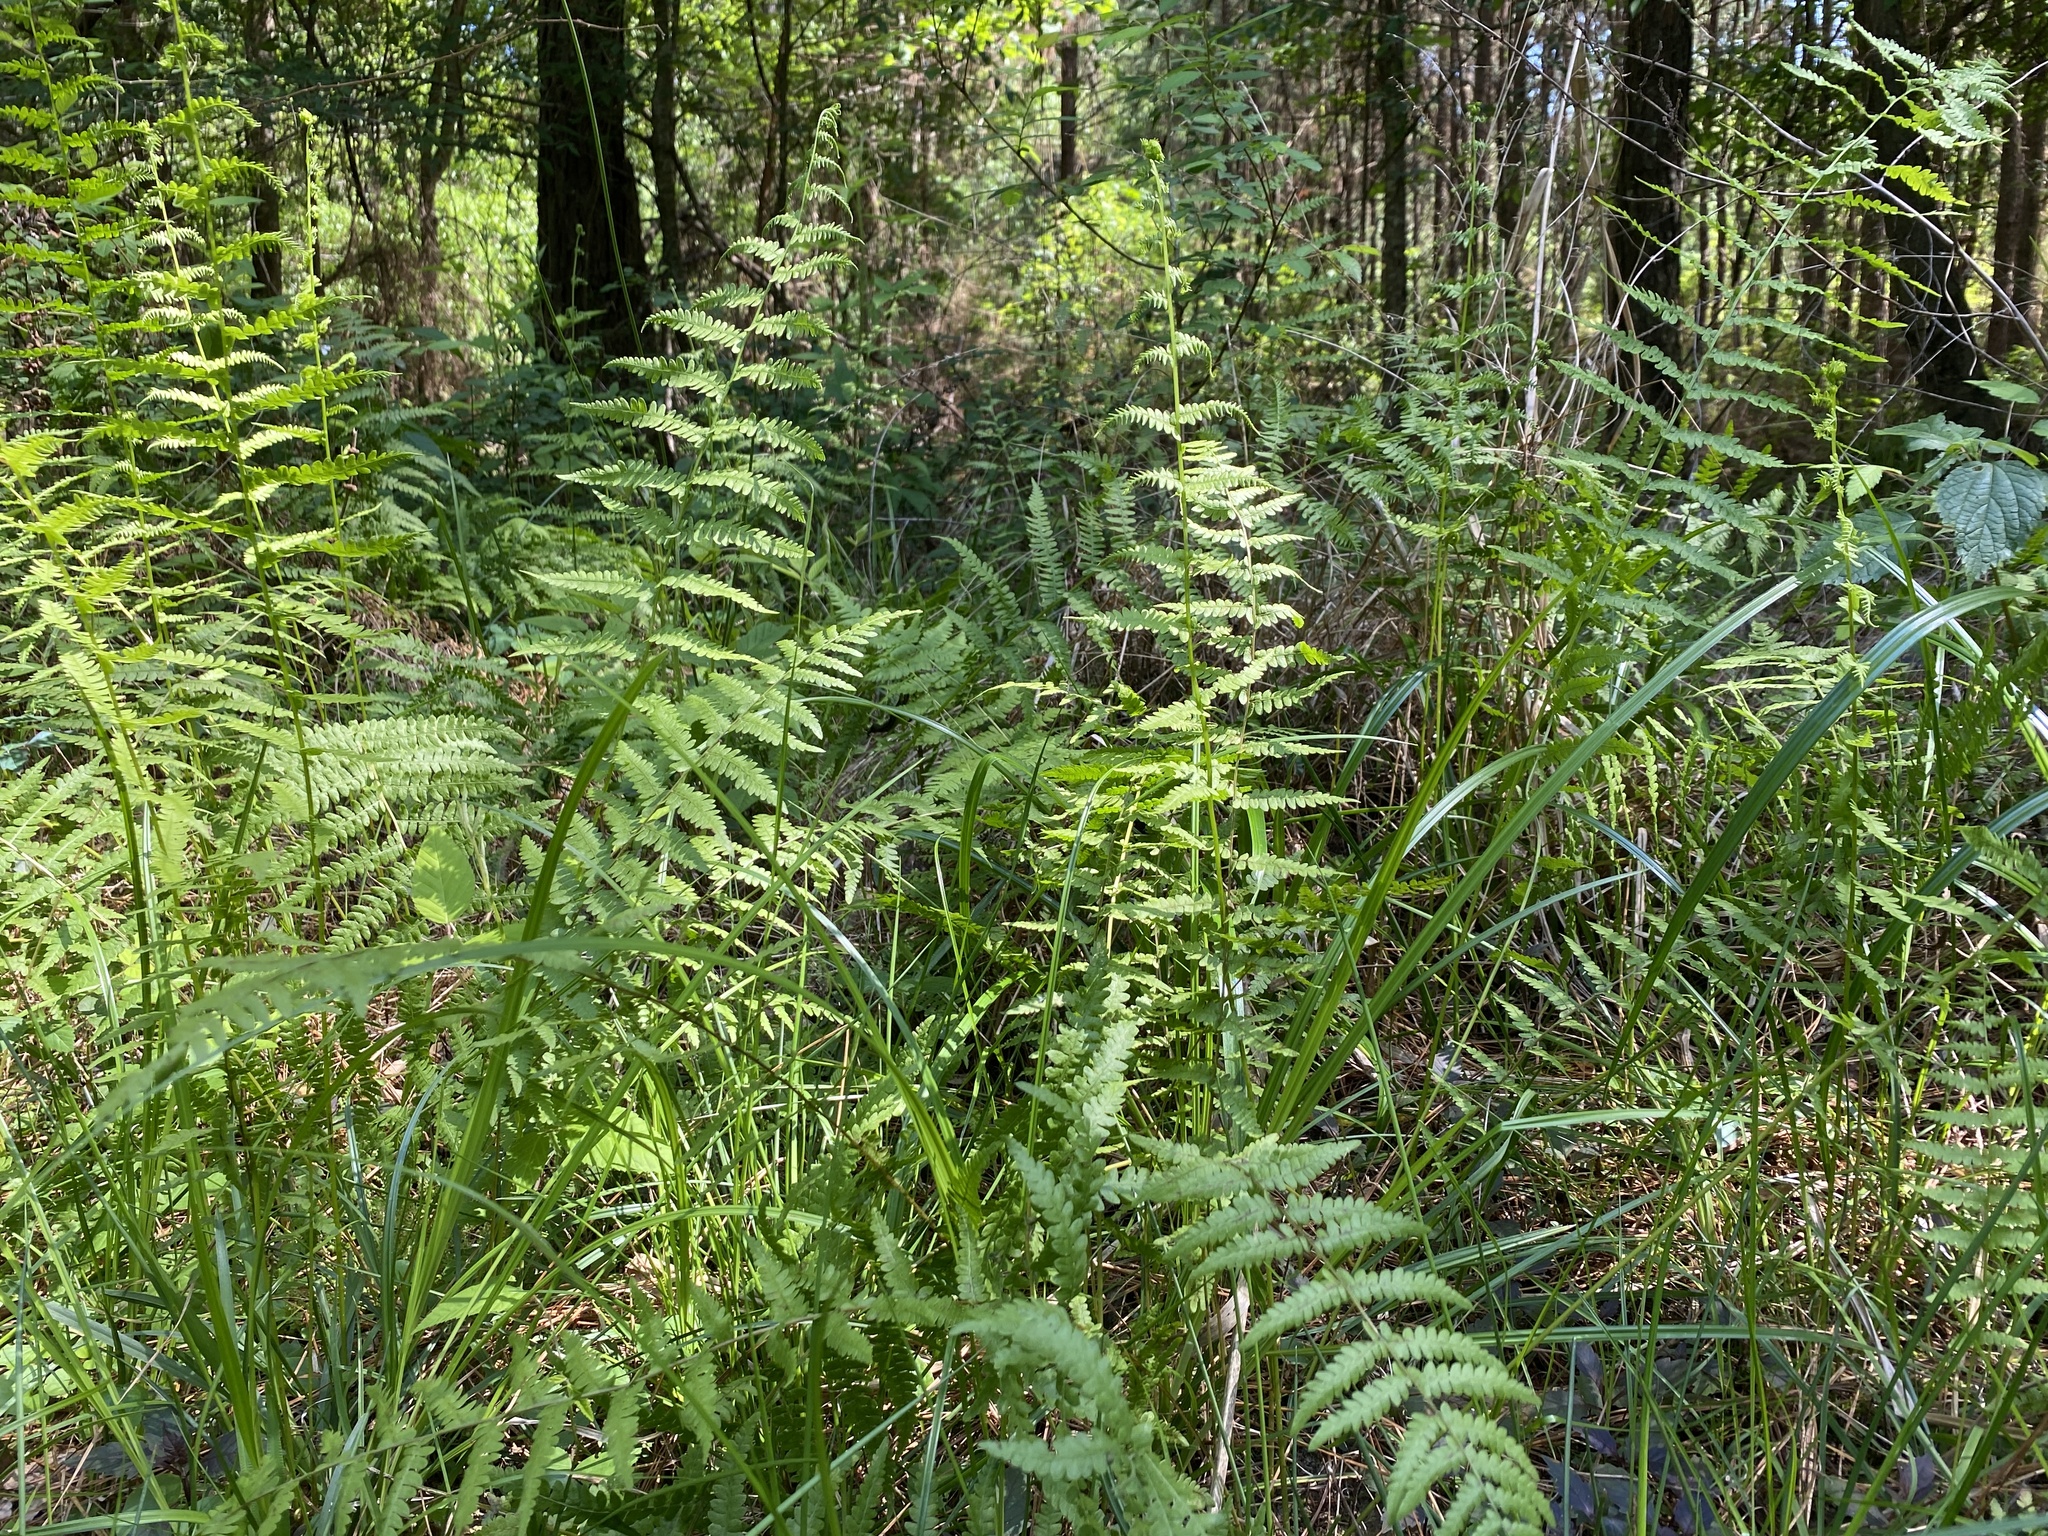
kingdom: Plantae
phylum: Tracheophyta
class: Polypodiopsida
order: Polypodiales
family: Thelypteridaceae
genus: Thelypteris
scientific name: Thelypteris palustris
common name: Marsh fern
